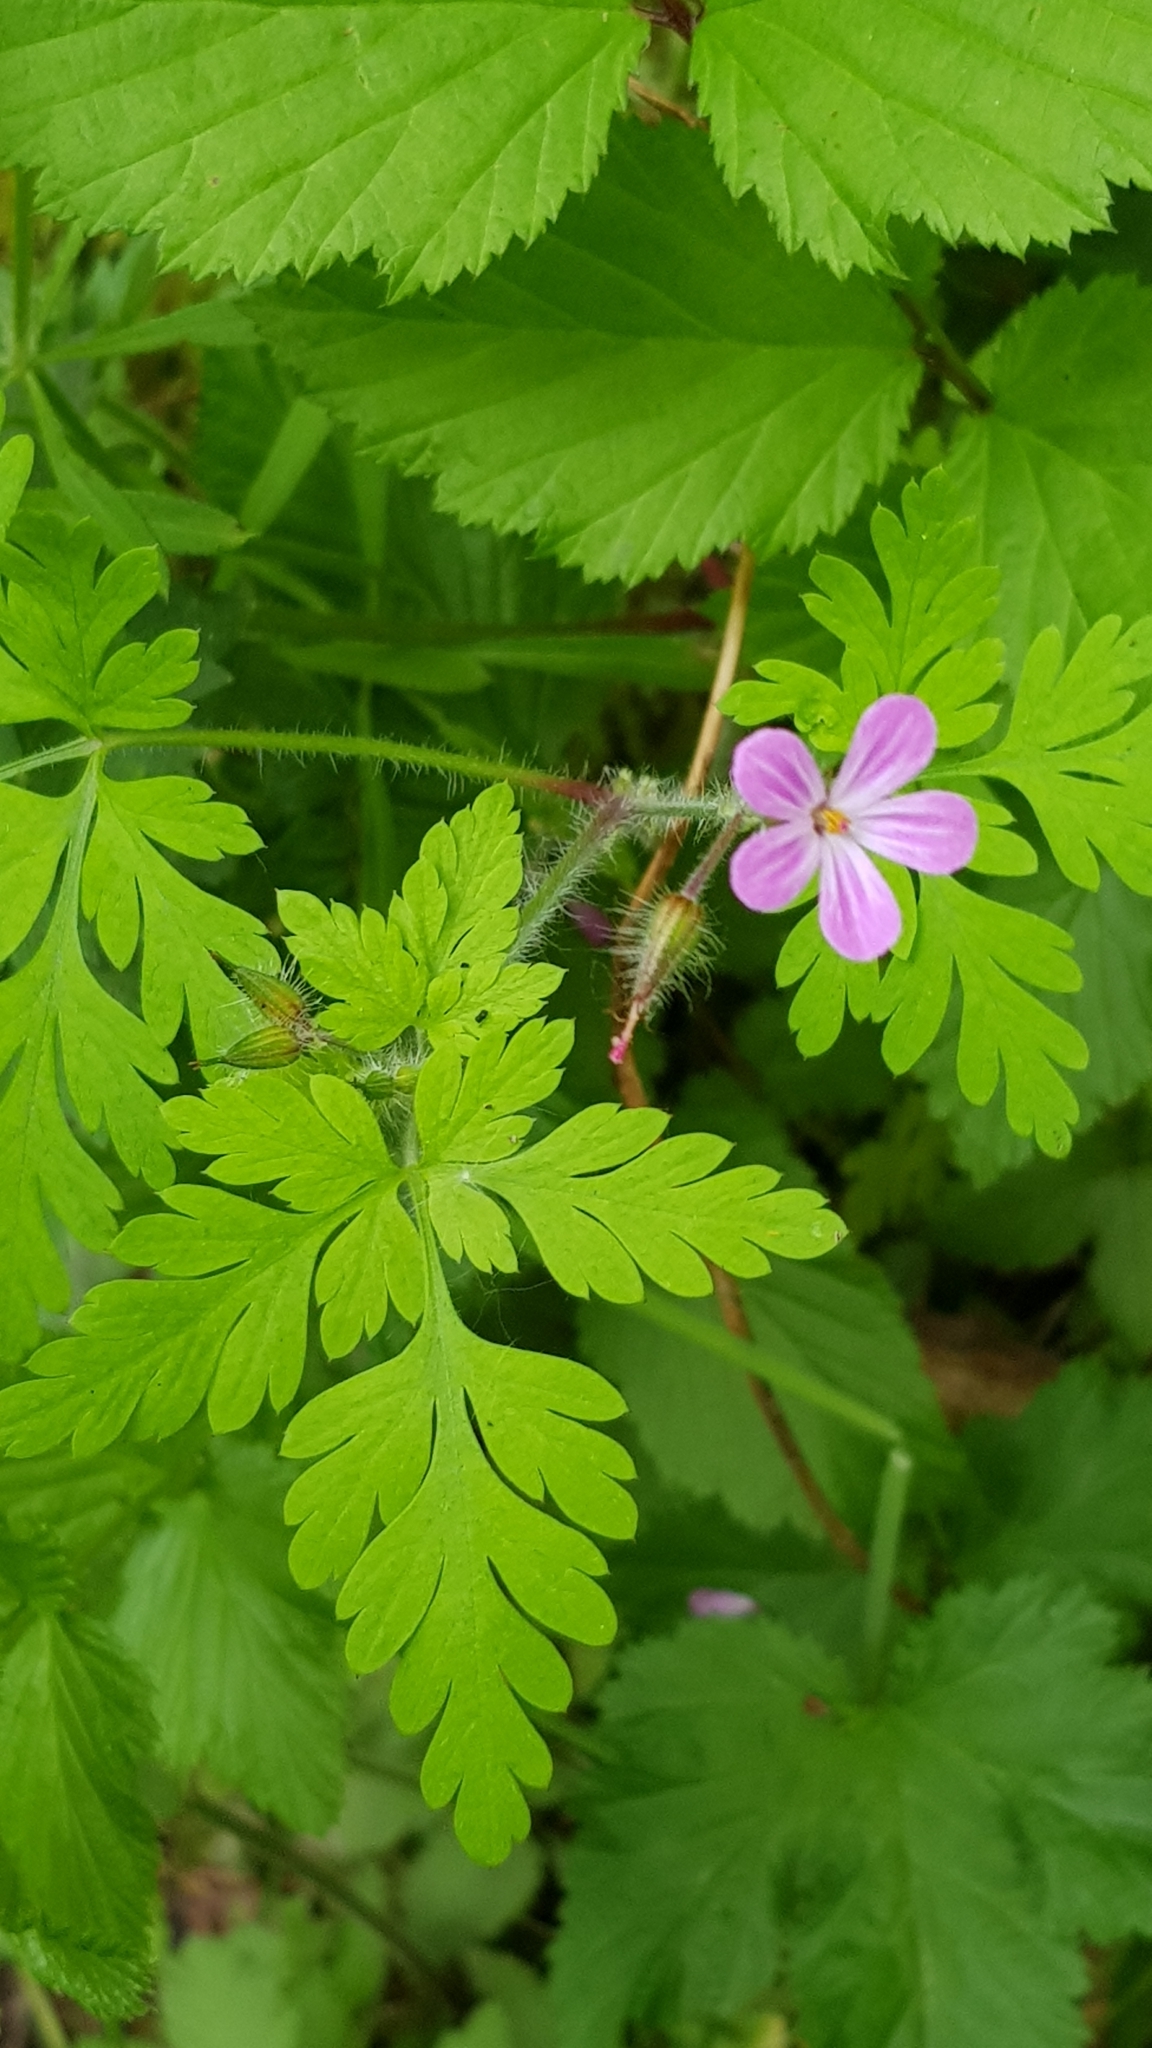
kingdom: Plantae
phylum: Tracheophyta
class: Magnoliopsida
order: Geraniales
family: Geraniaceae
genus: Geranium
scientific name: Geranium robertianum
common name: Herb-robert
